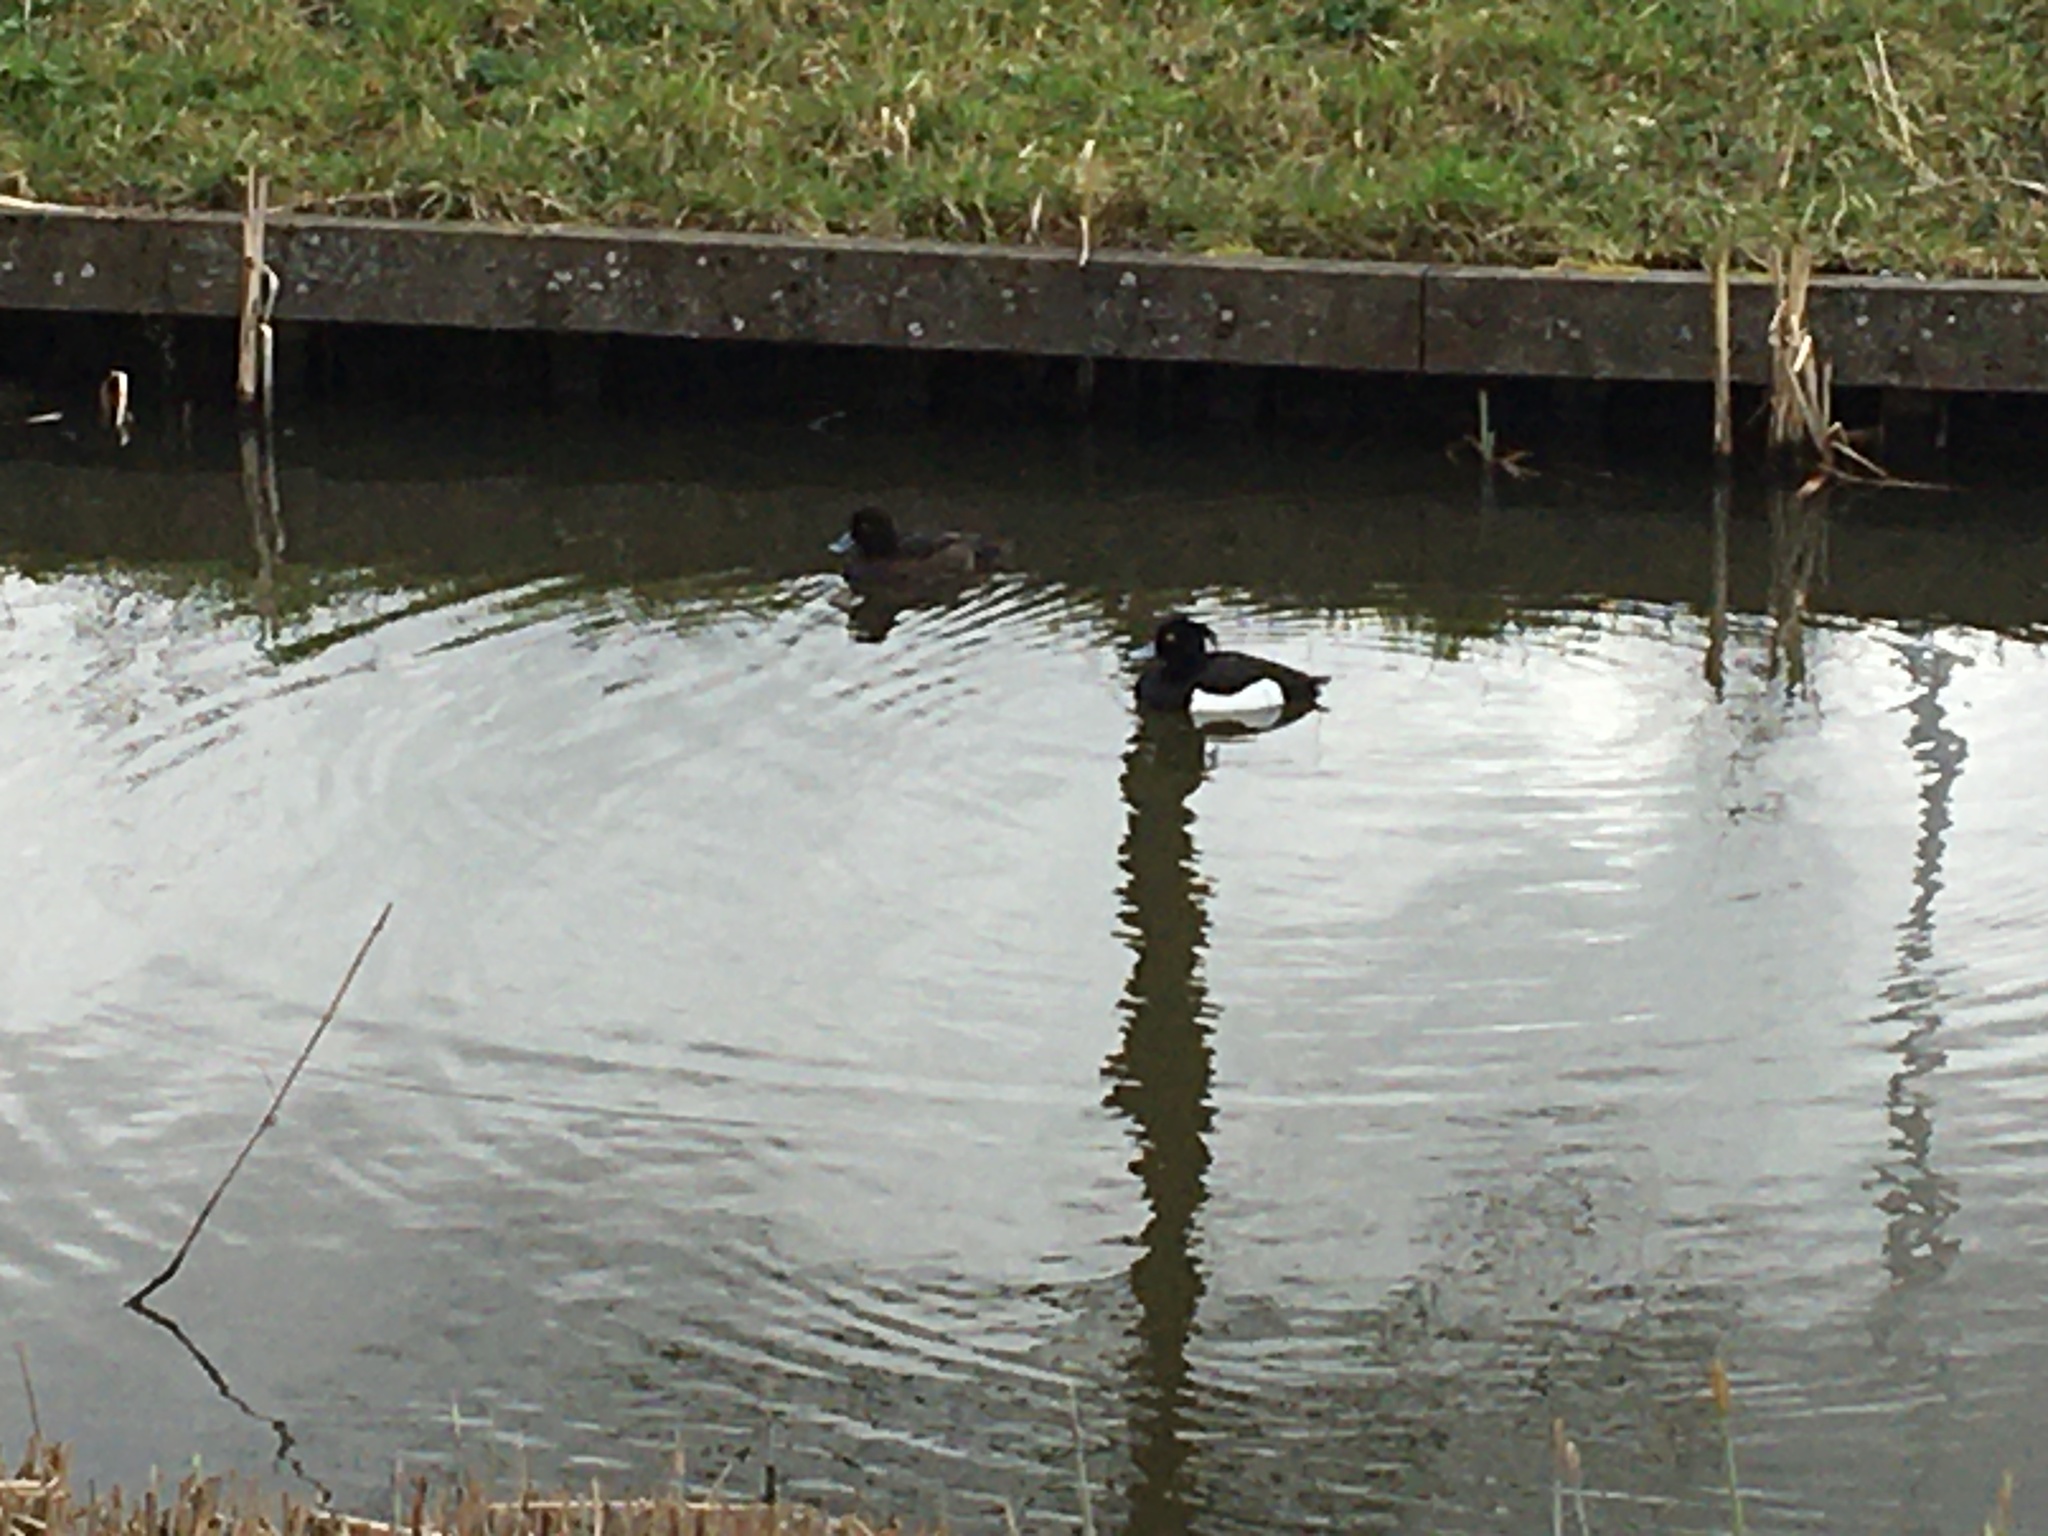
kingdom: Animalia
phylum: Chordata
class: Aves
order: Anseriformes
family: Anatidae
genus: Aythya
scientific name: Aythya fuligula
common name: Tufted duck
